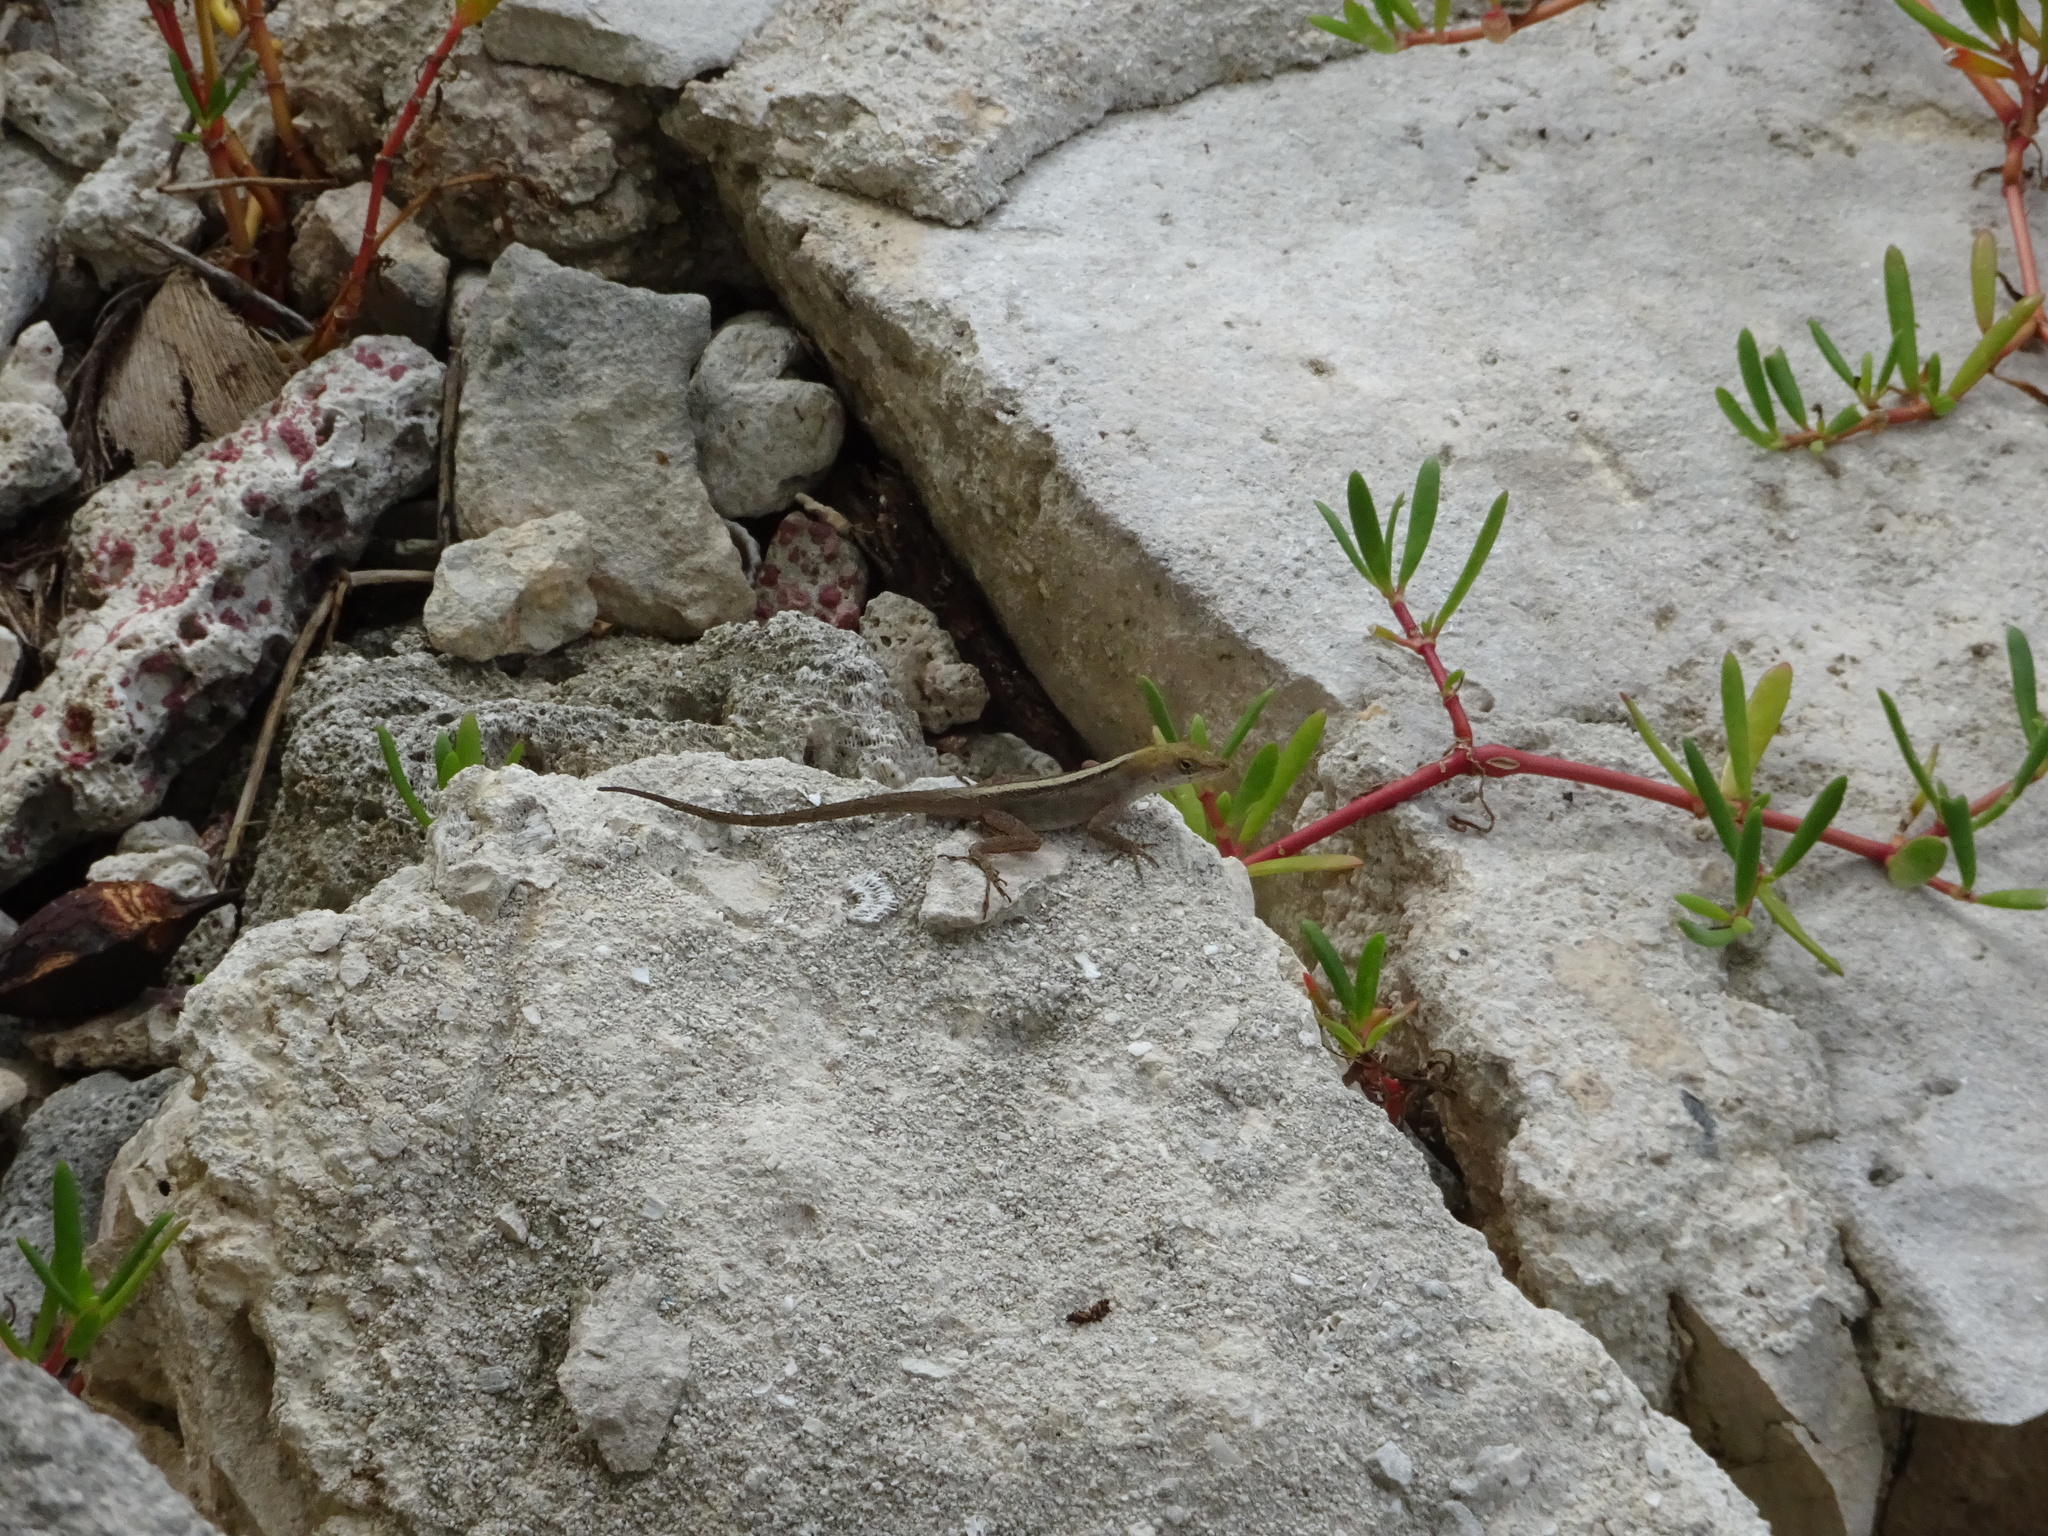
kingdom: Animalia
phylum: Chordata
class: Squamata
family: Dactyloidae
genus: Anolis
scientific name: Anolis sagrei
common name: Brown anole
